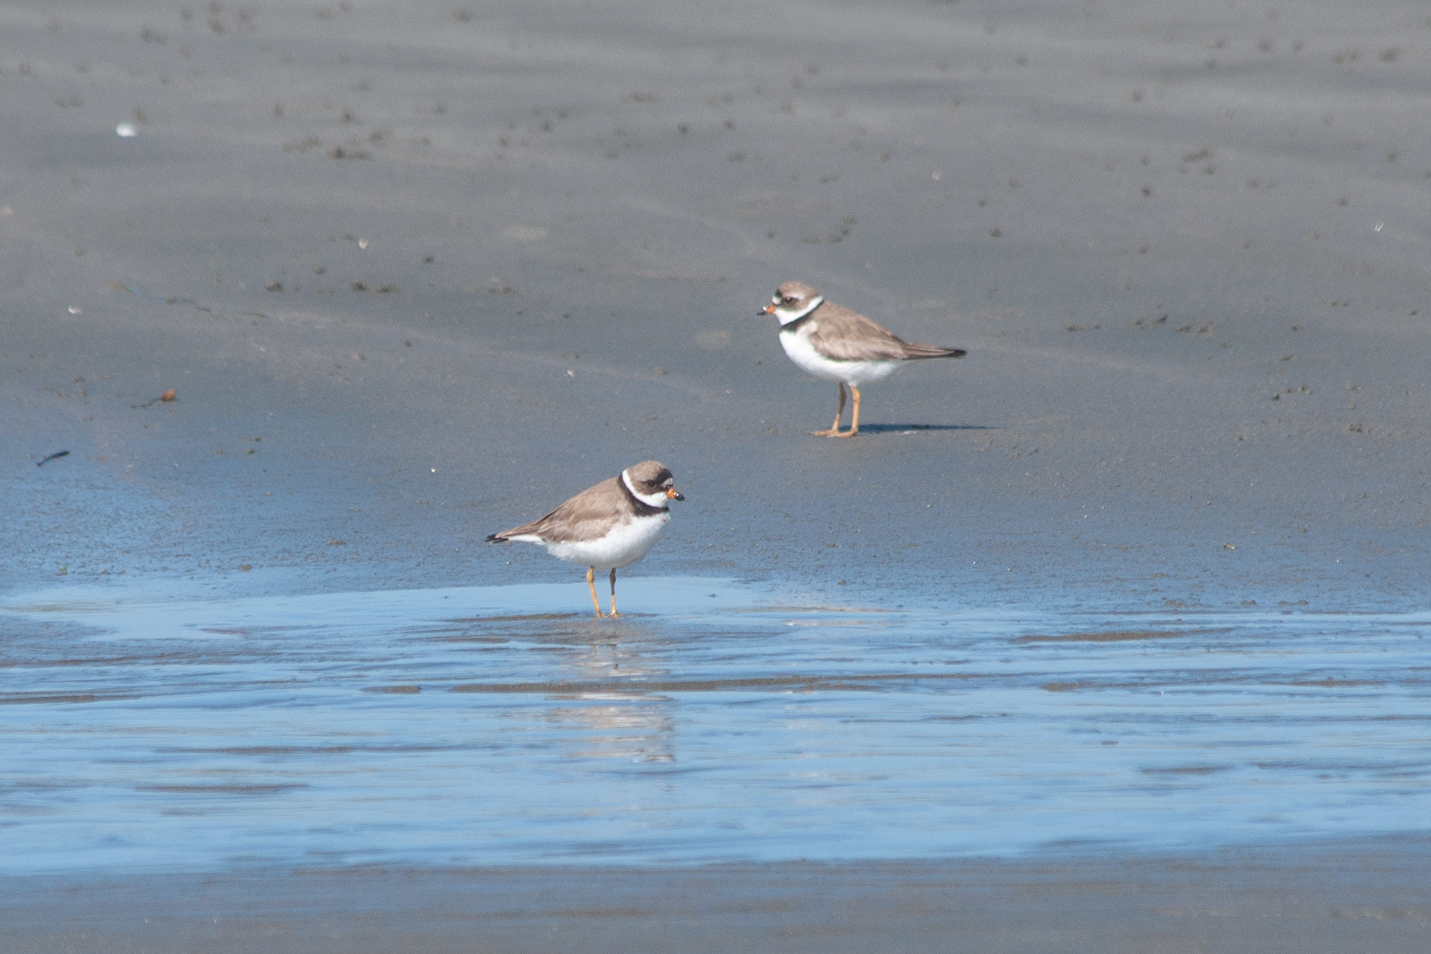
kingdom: Animalia
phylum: Chordata
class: Aves
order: Charadriiformes
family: Charadriidae
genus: Charadrius
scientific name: Charadrius semipalmatus
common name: Semipalmated plover
